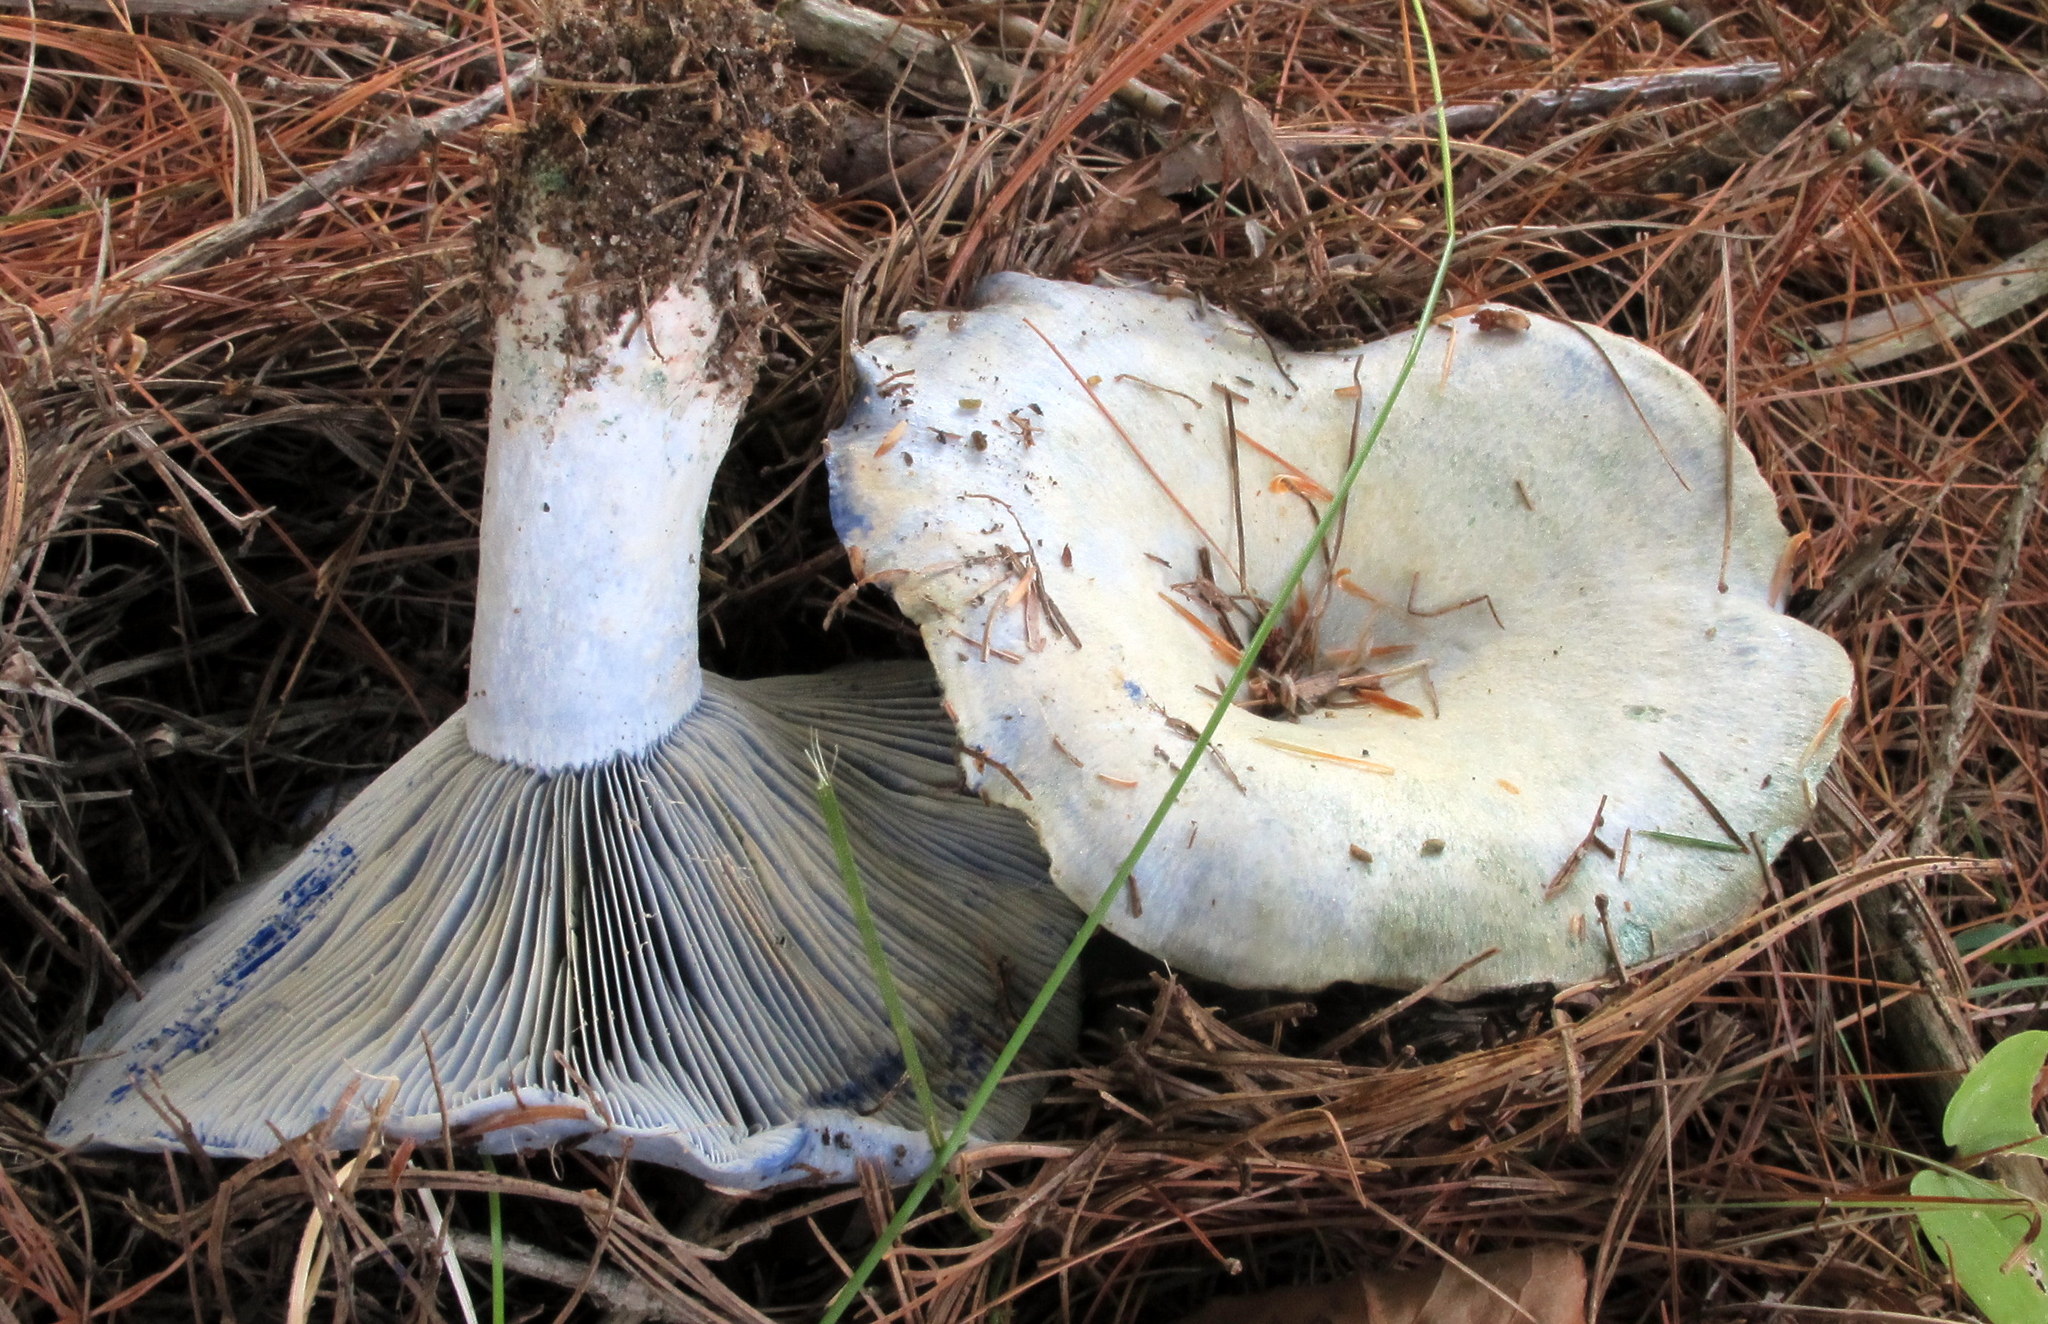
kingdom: Fungi
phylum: Basidiomycota
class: Agaricomycetes
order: Russulales
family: Russulaceae
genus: Lactarius
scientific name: Lactarius indigo
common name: Indigo milk cap
